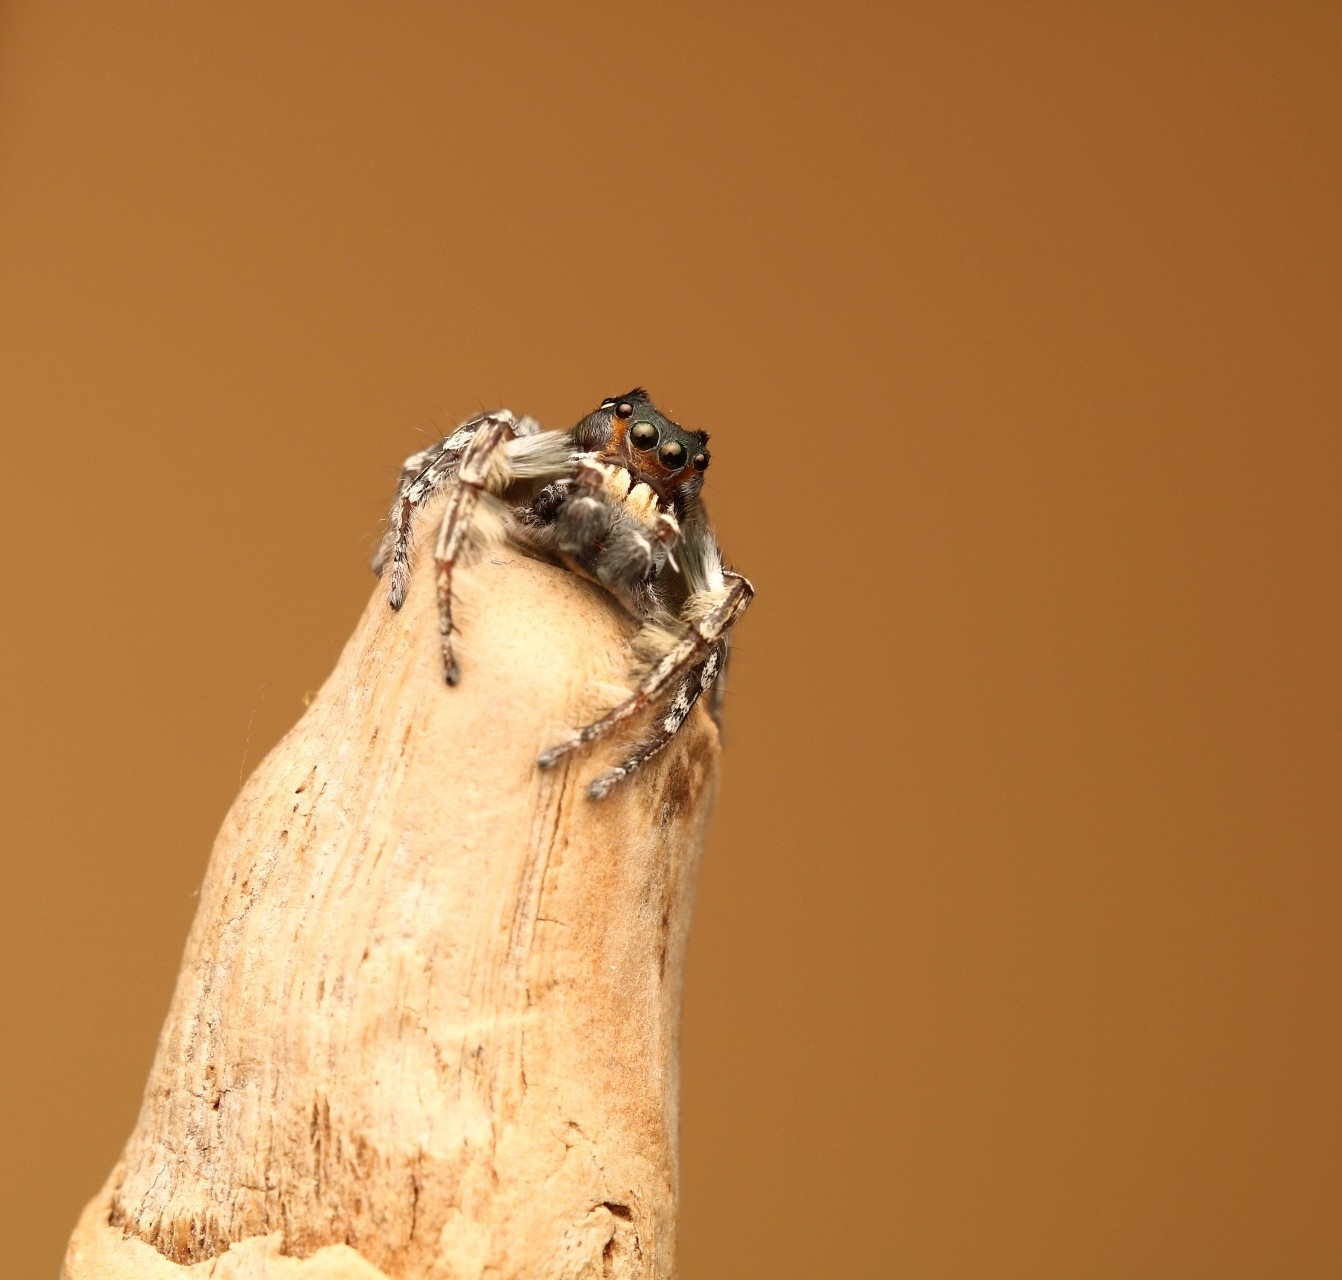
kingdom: Animalia
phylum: Arthropoda
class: Arachnida
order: Araneae
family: Salticidae
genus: Phidippus
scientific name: Phidippus putnami
